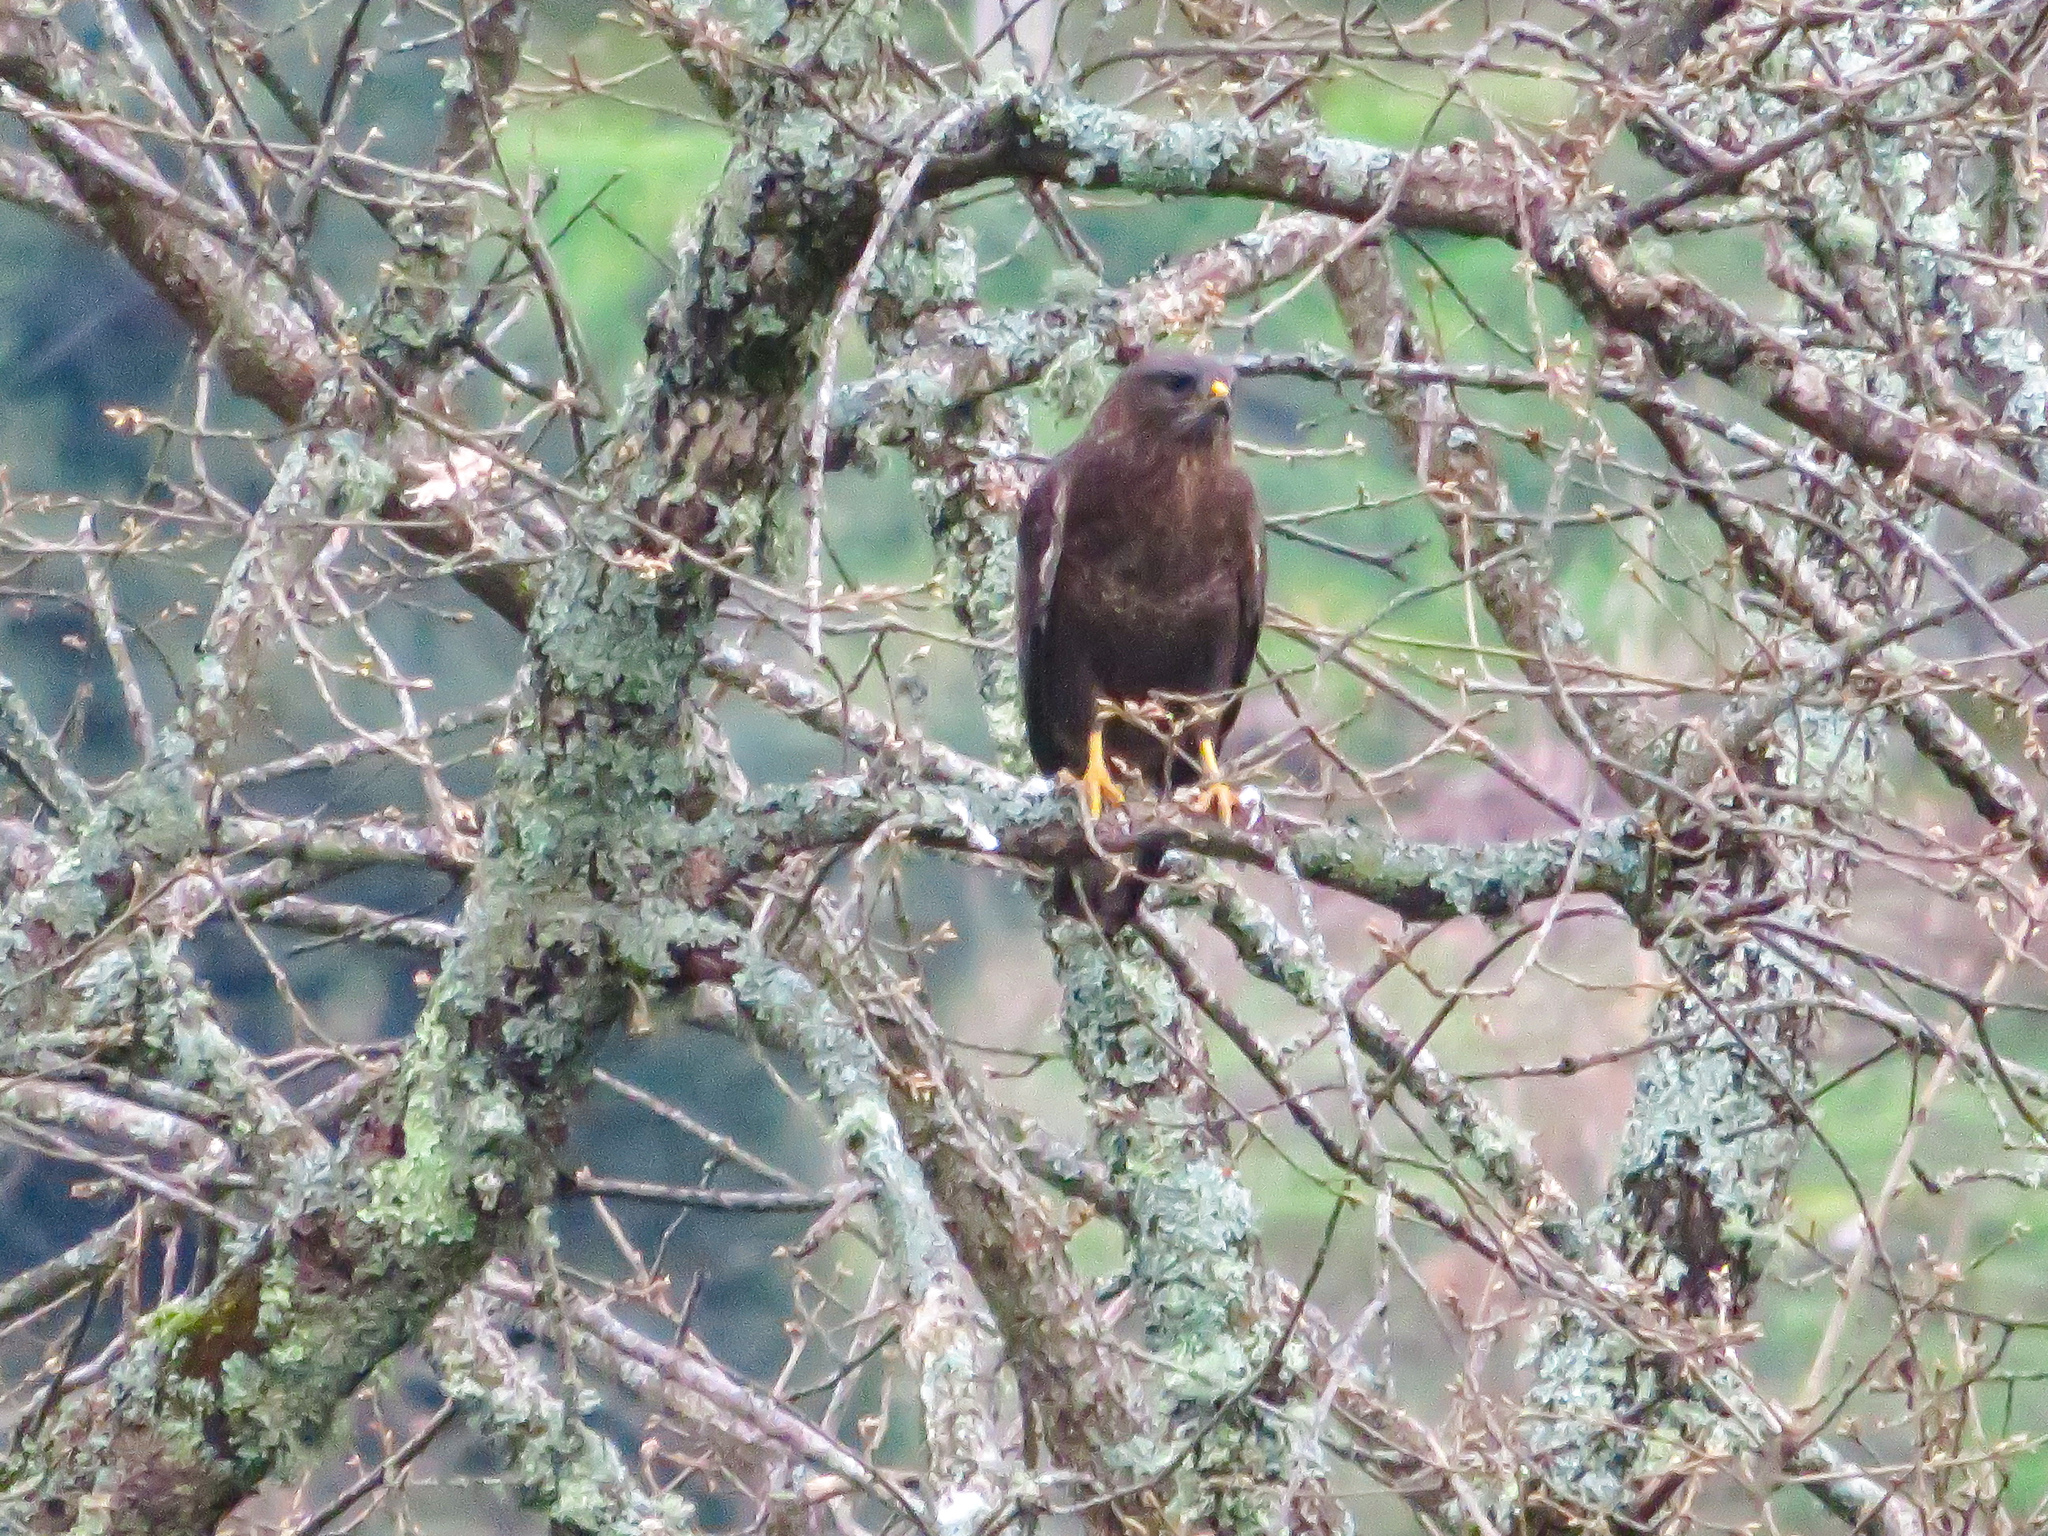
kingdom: Animalia
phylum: Chordata
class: Aves
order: Accipitriformes
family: Accipitridae
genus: Buteo
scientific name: Buteo buteo
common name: Common buzzard
